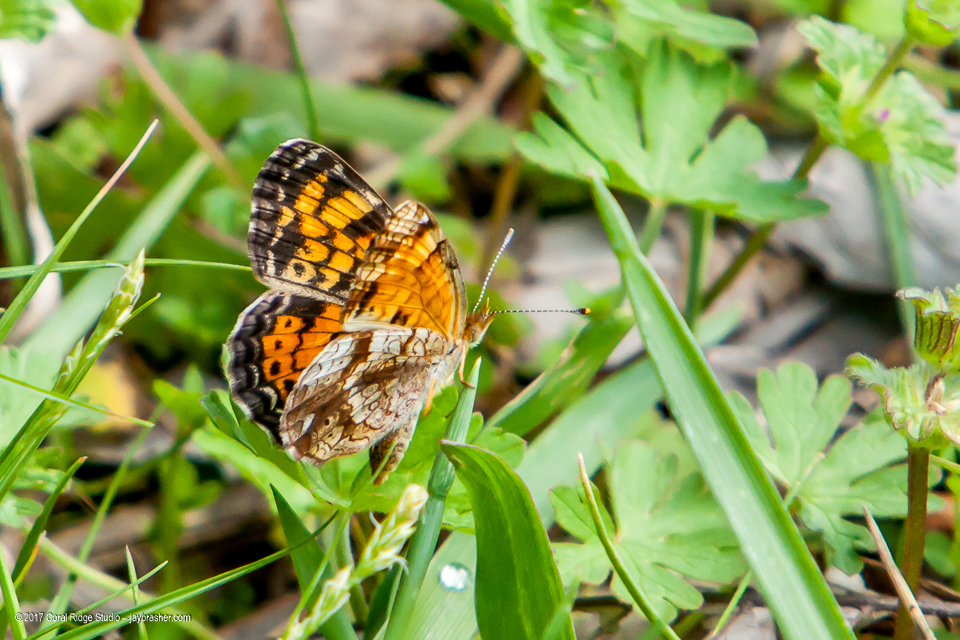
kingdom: Animalia
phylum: Arthropoda
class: Insecta
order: Lepidoptera
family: Nymphalidae
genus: Phyciodes
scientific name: Phyciodes tharos
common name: Pearl crescent
